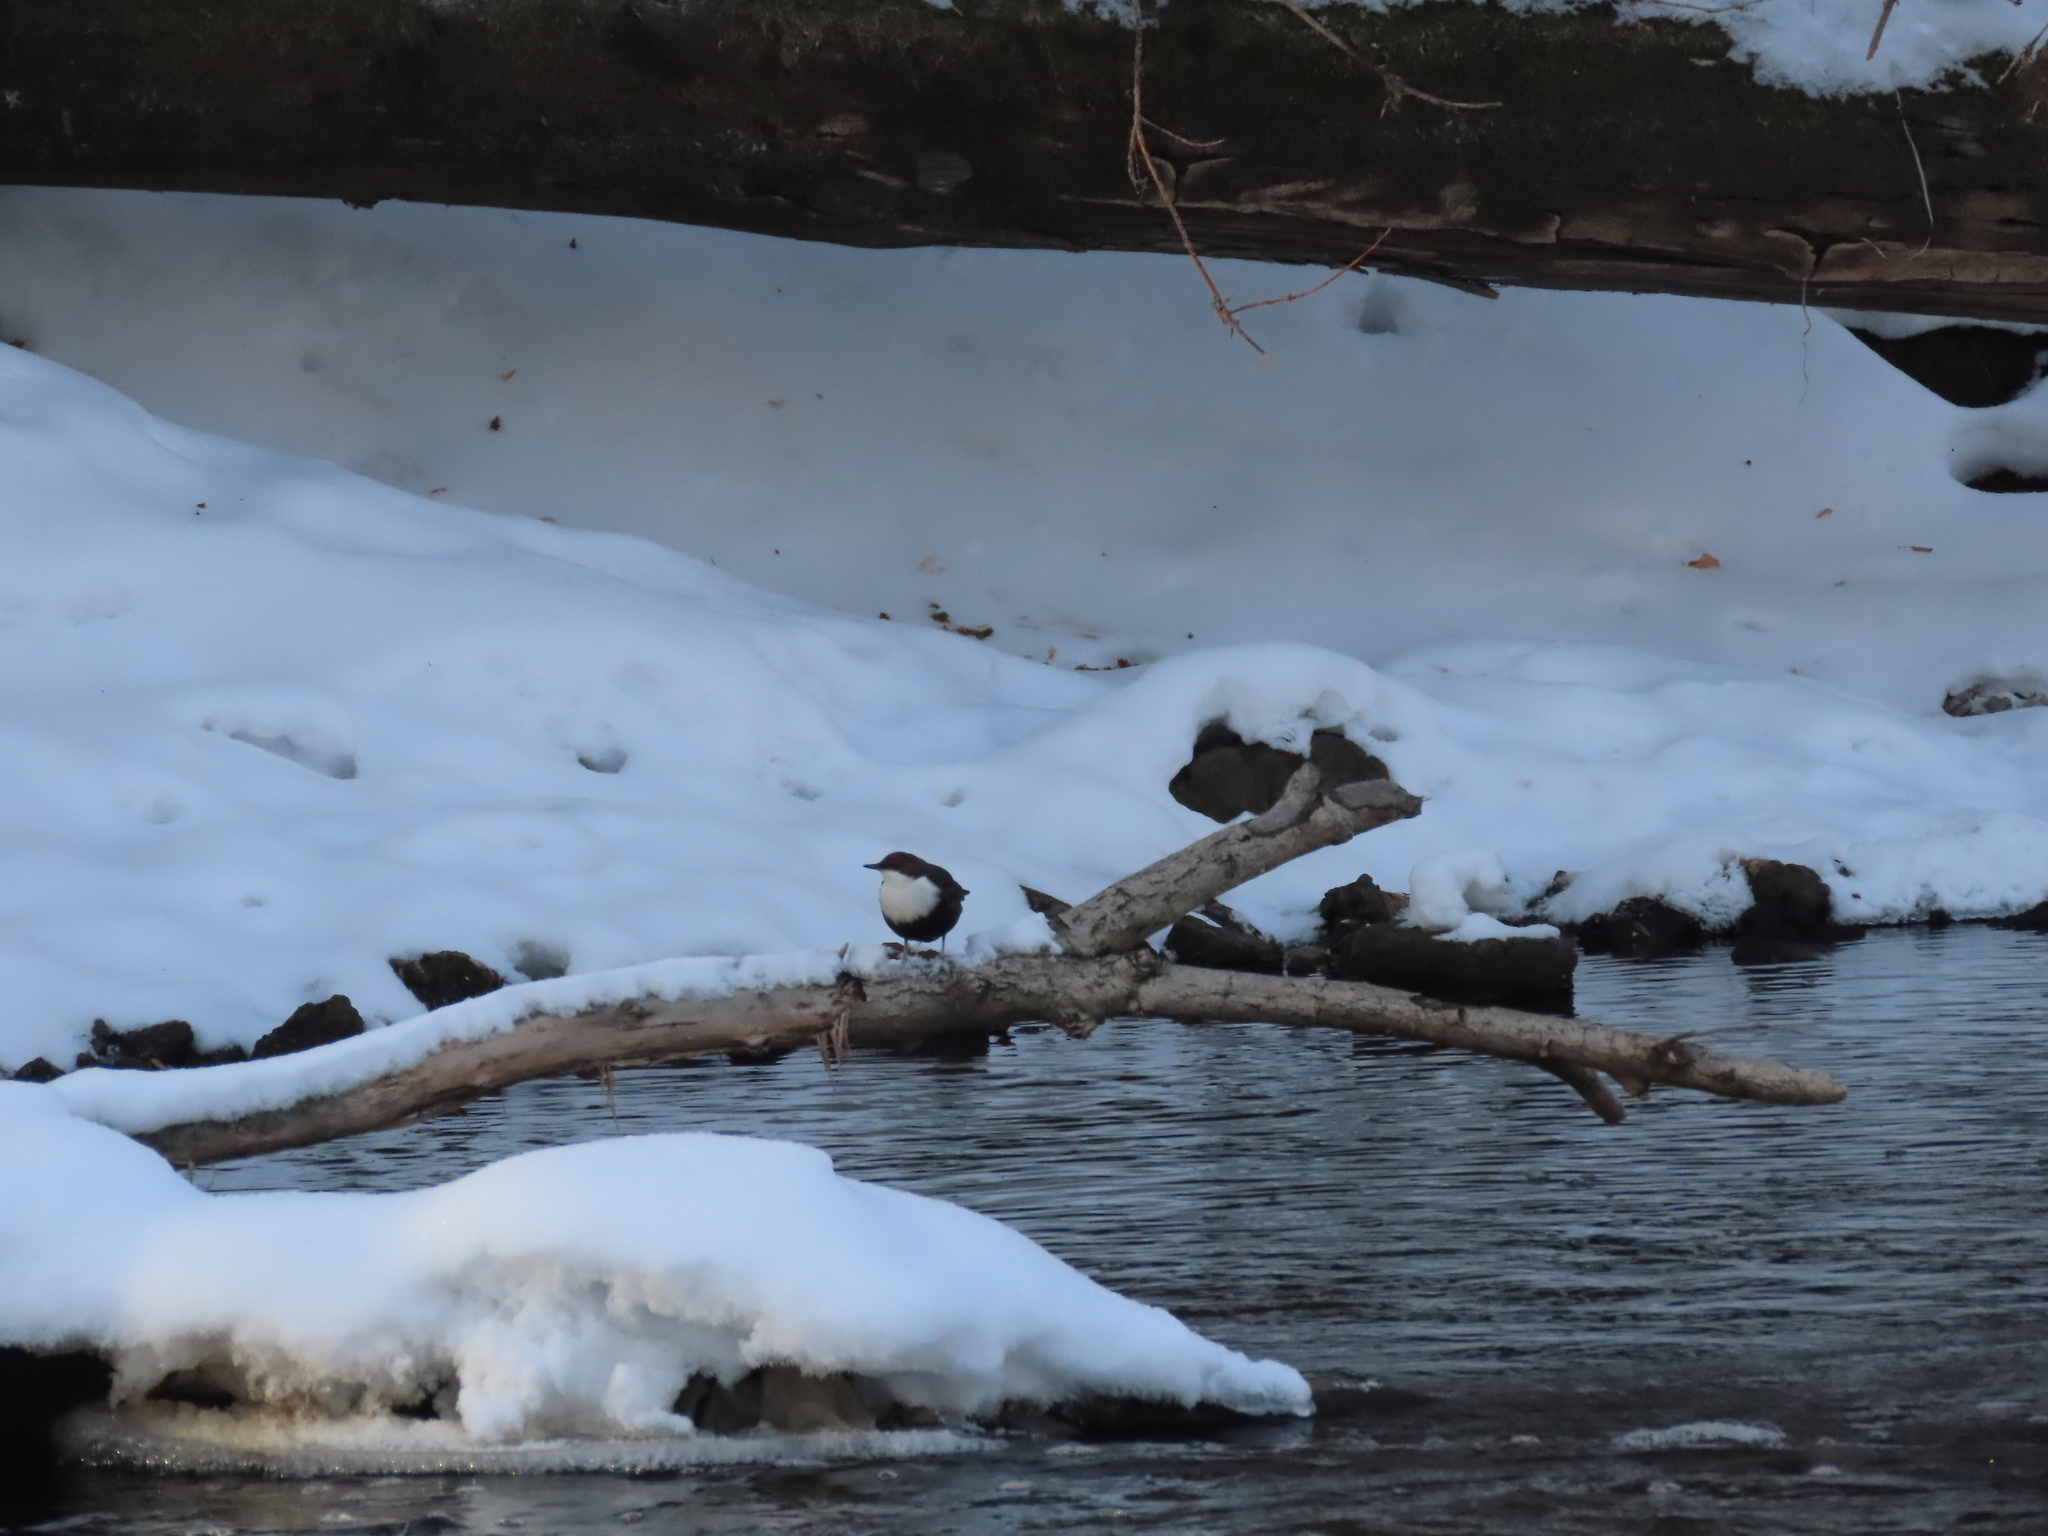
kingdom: Animalia
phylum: Chordata
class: Aves
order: Passeriformes
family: Cinclidae
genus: Cinclus
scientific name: Cinclus cinclus
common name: White-throated dipper
